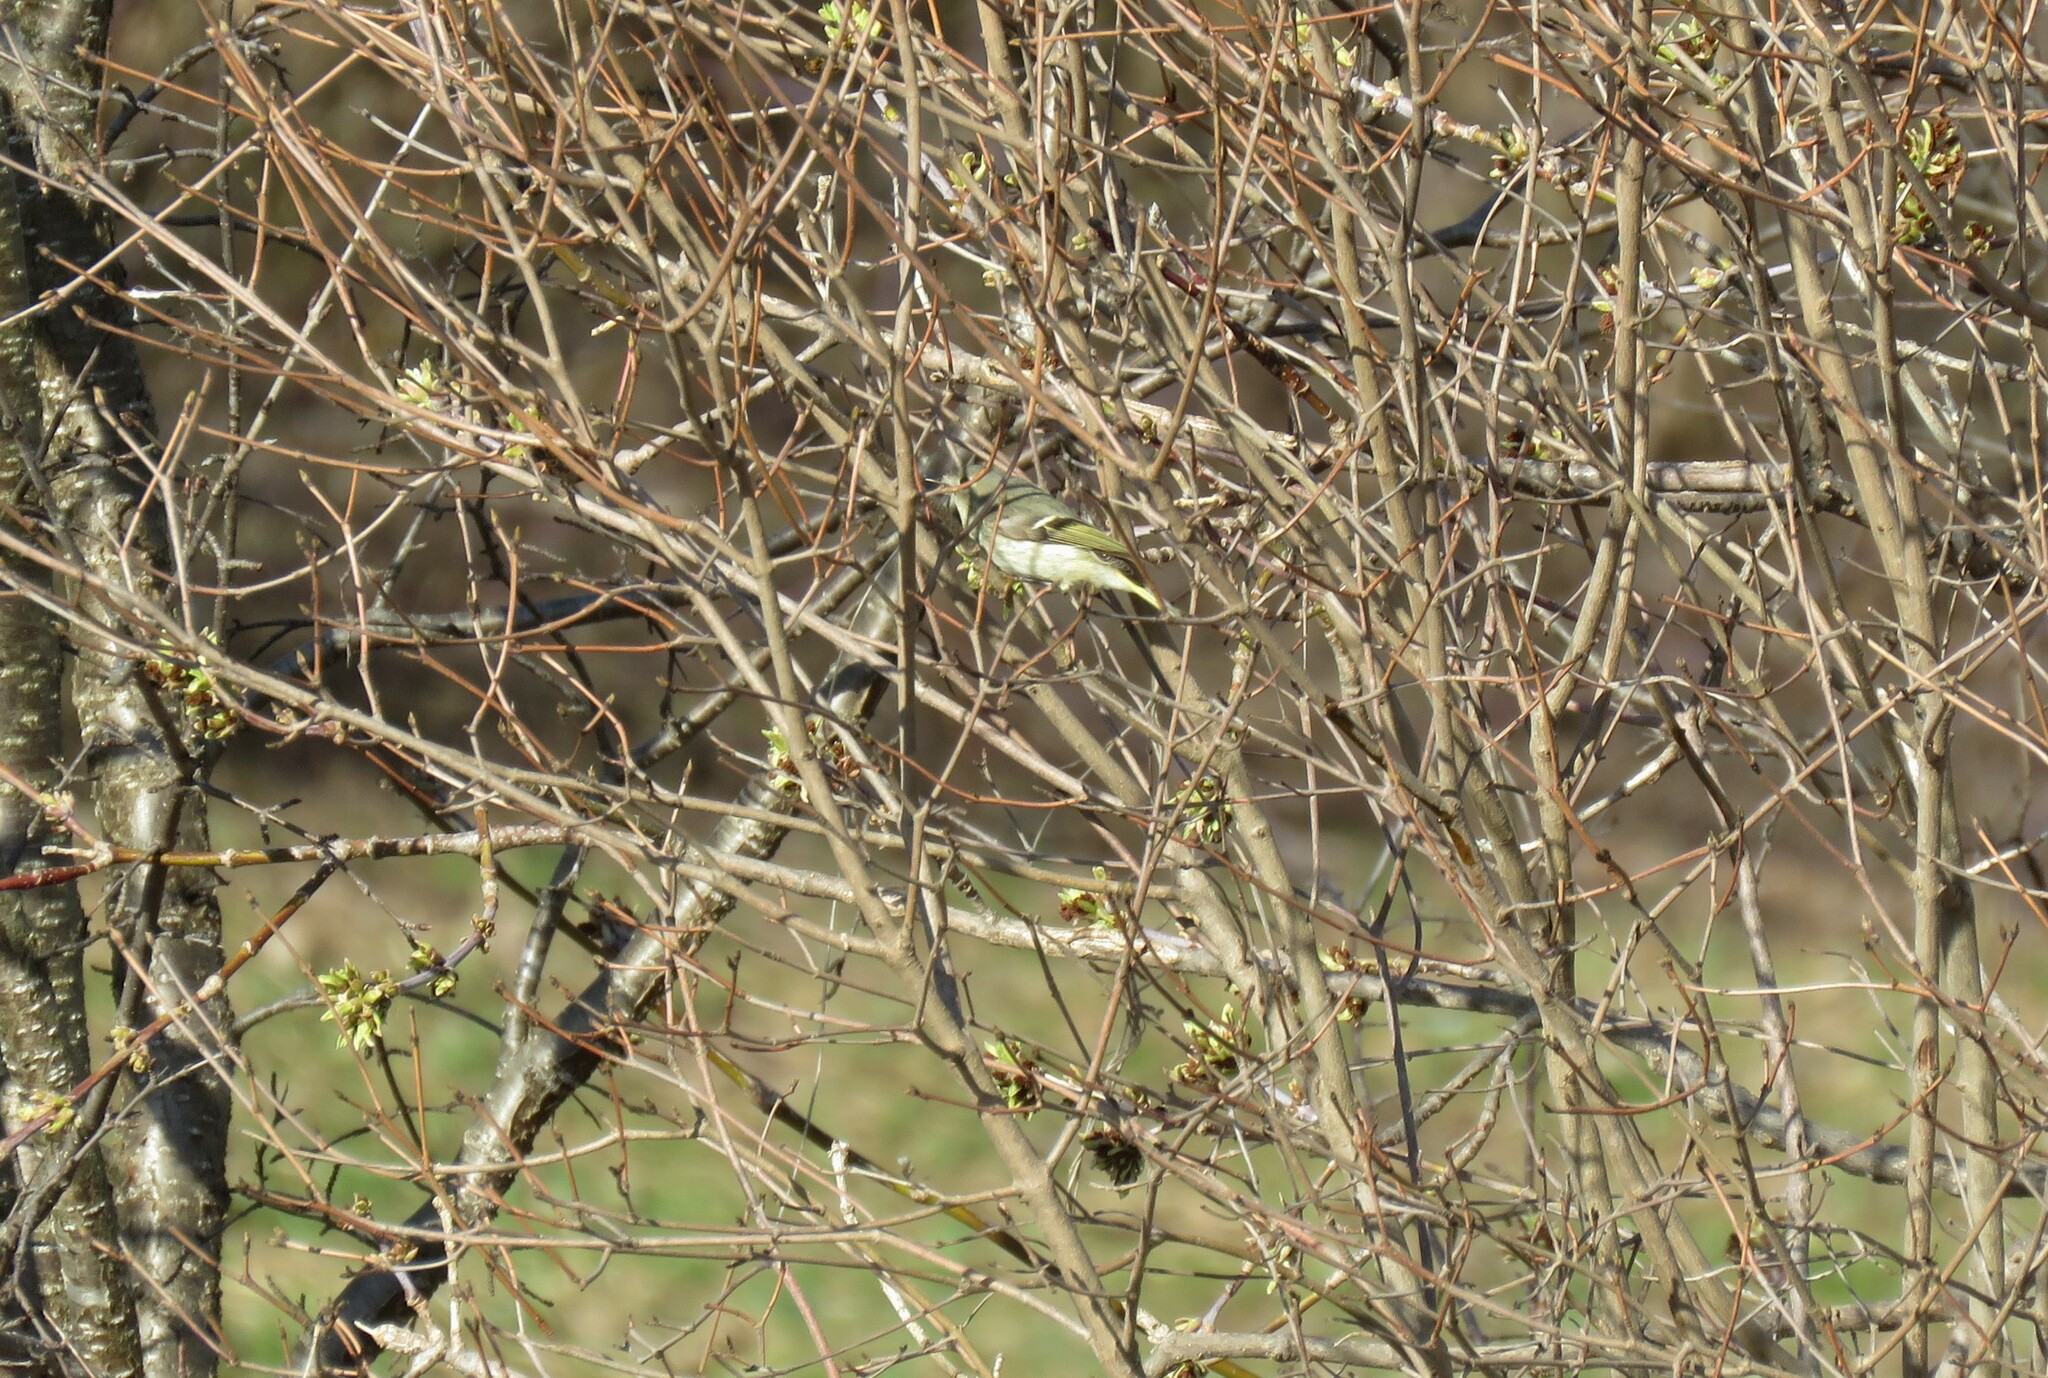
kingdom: Animalia
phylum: Chordata
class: Aves
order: Passeriformes
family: Regulidae
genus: Regulus
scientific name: Regulus calendula
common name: Ruby-crowned kinglet
